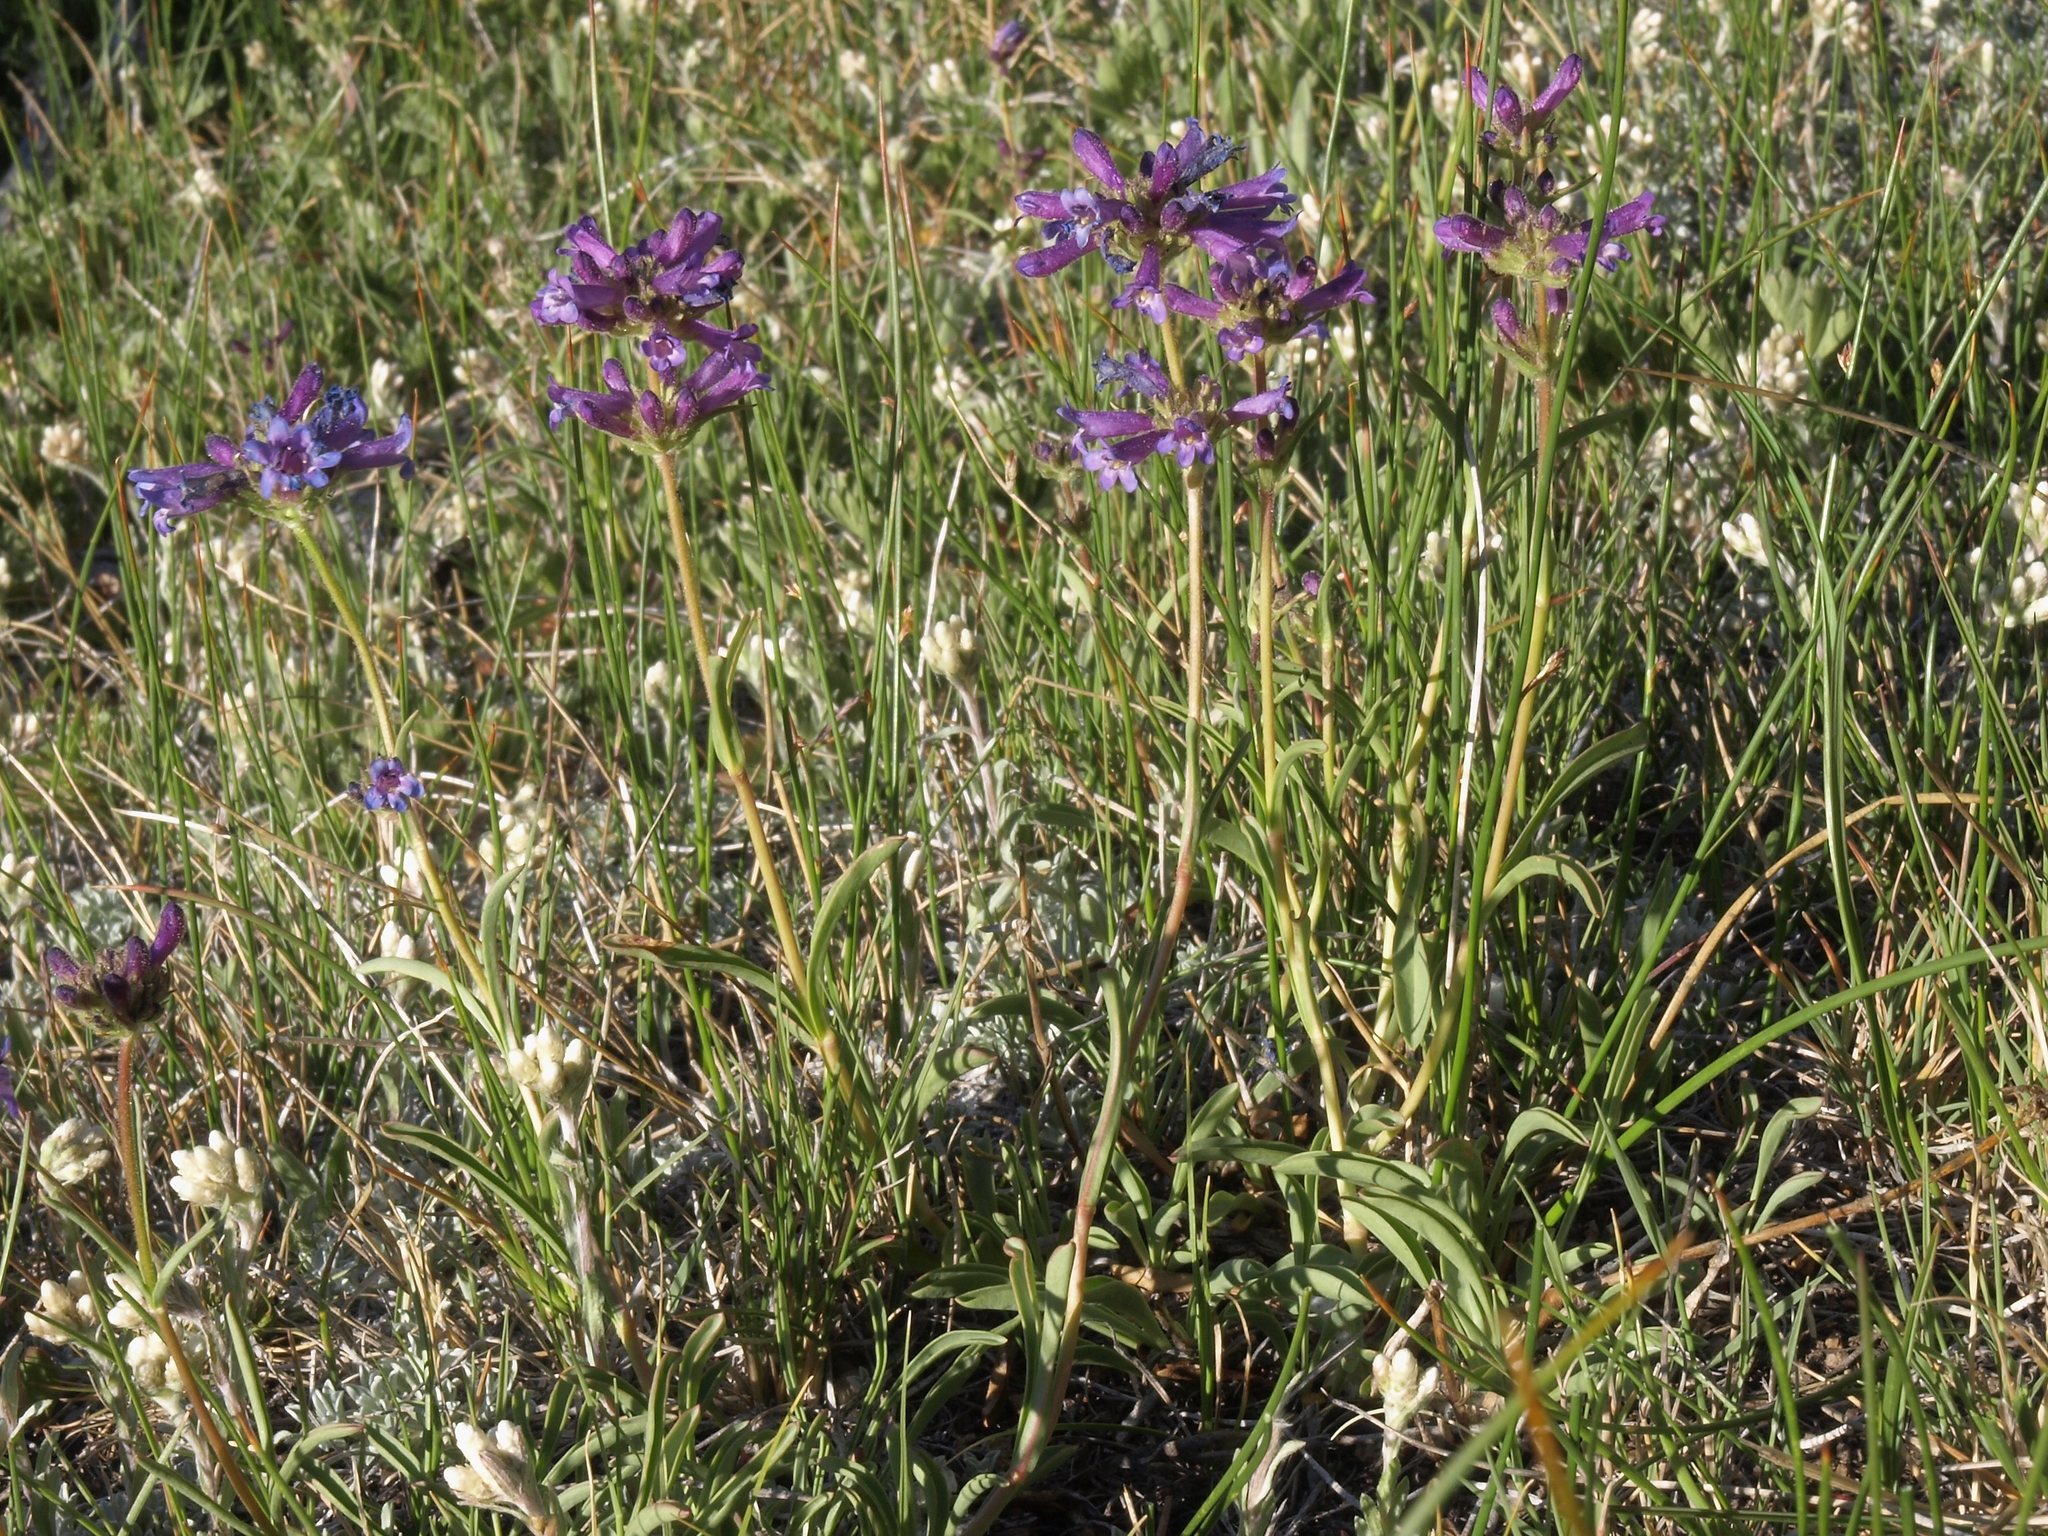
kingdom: Plantae
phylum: Tracheophyta
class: Magnoliopsida
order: Lamiales
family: Plantaginaceae
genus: Penstemon
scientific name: Penstemon heterodoxus
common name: Sierran penstemon
